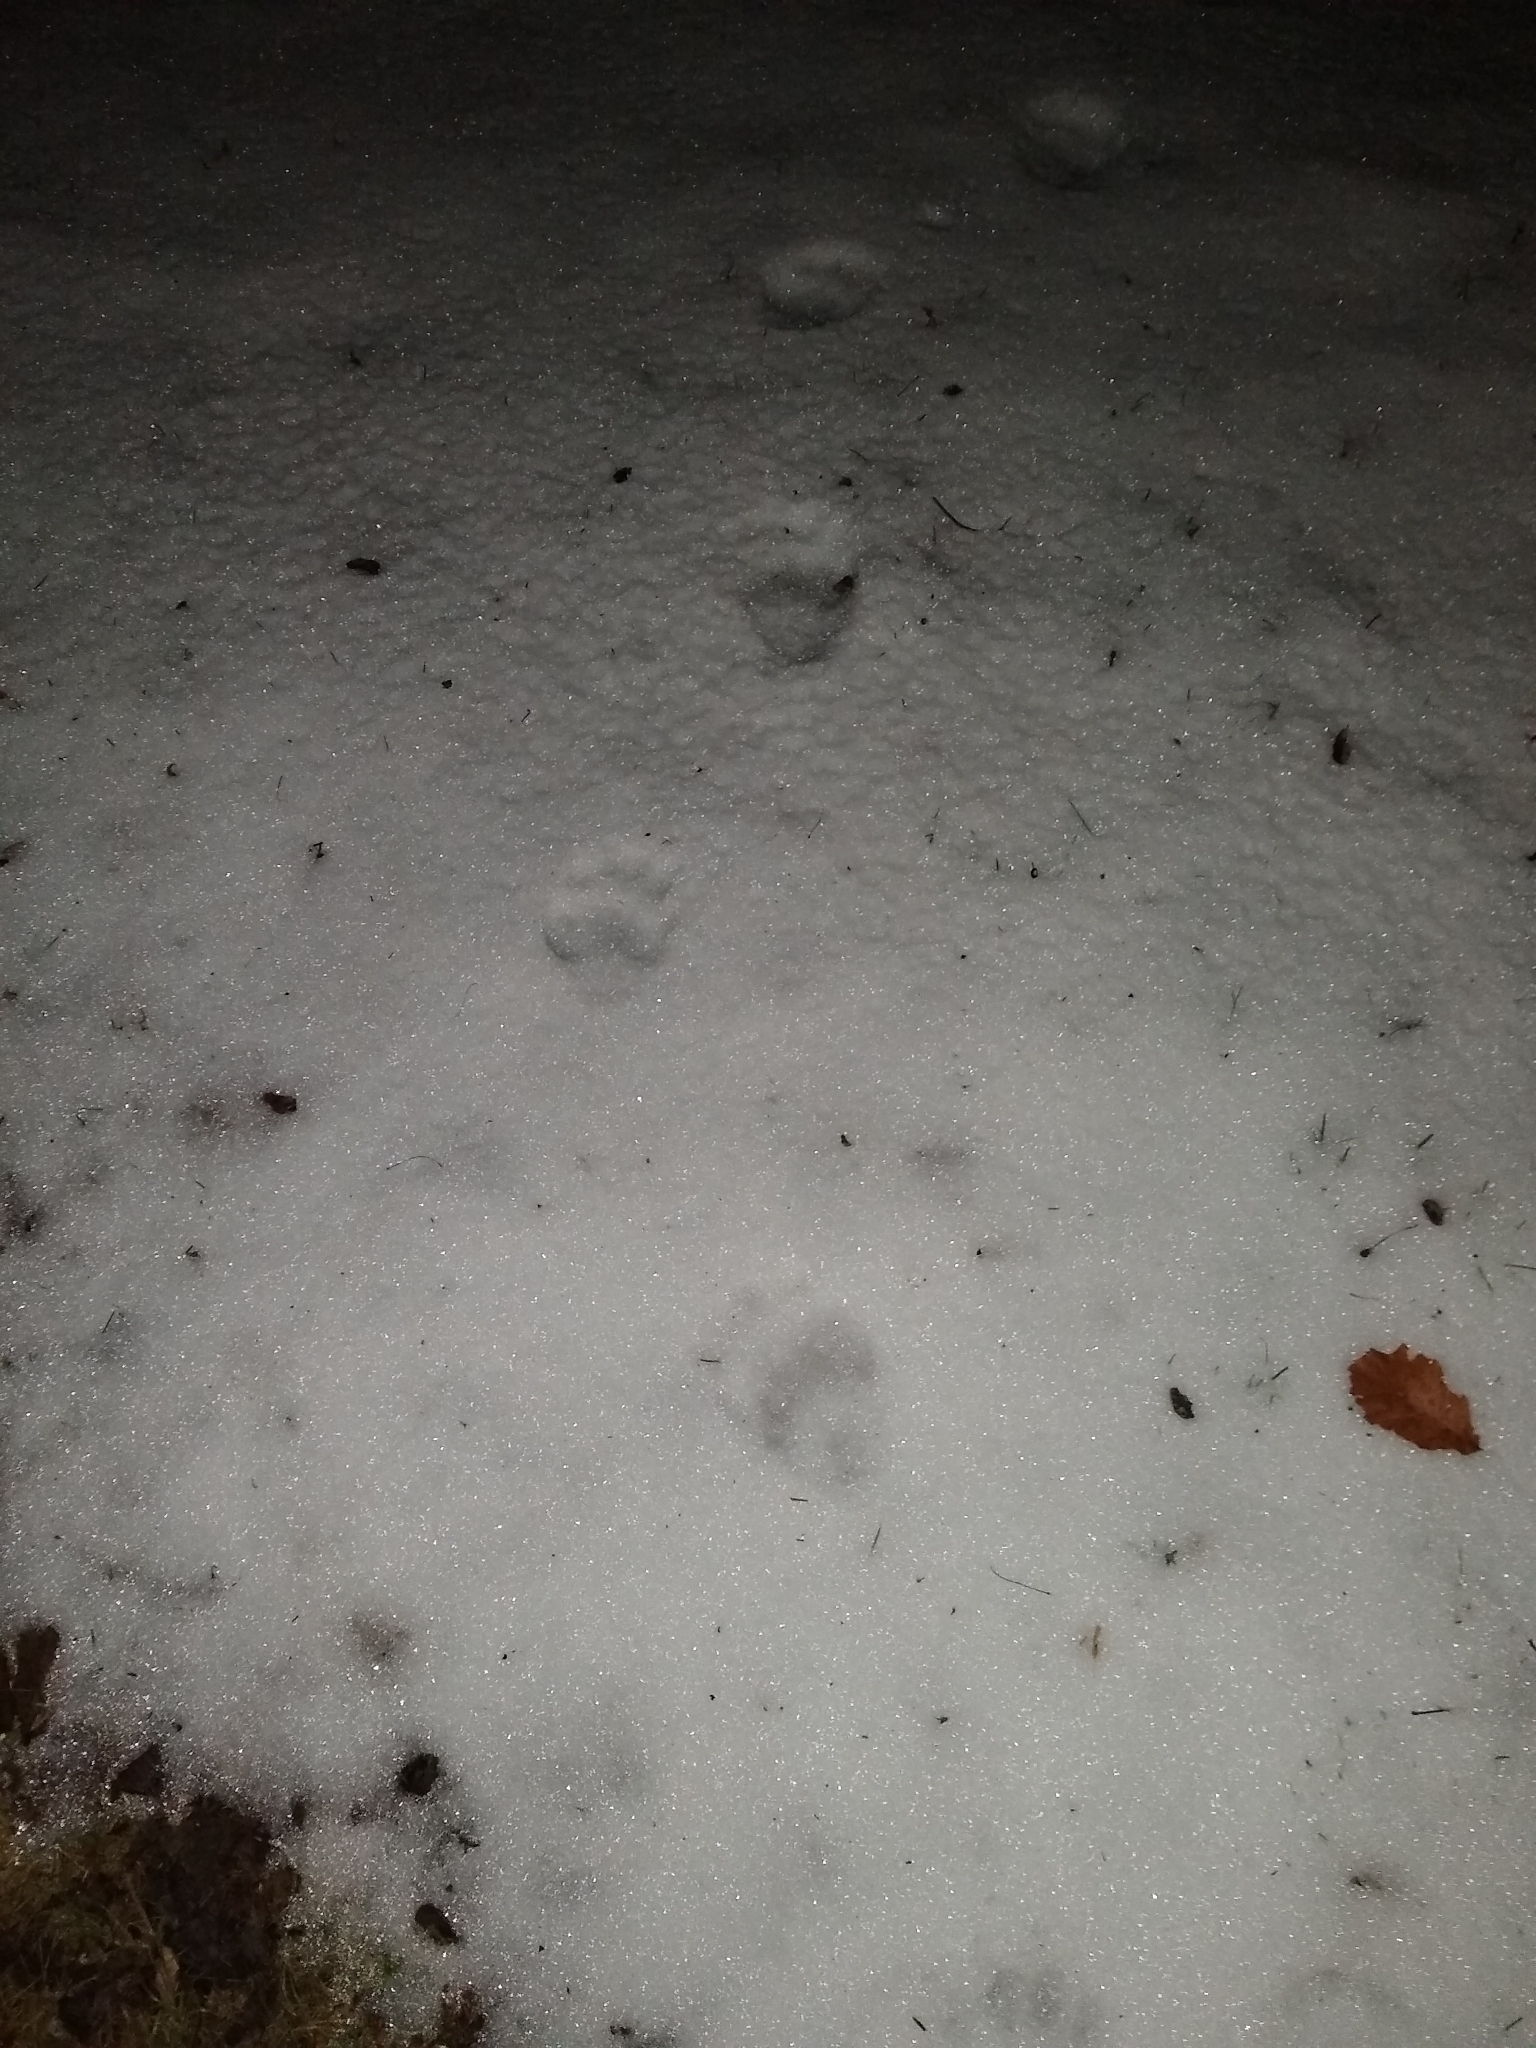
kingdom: Animalia
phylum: Chordata
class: Mammalia
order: Carnivora
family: Ursidae
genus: Ursus
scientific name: Ursus americanus
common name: American black bear
